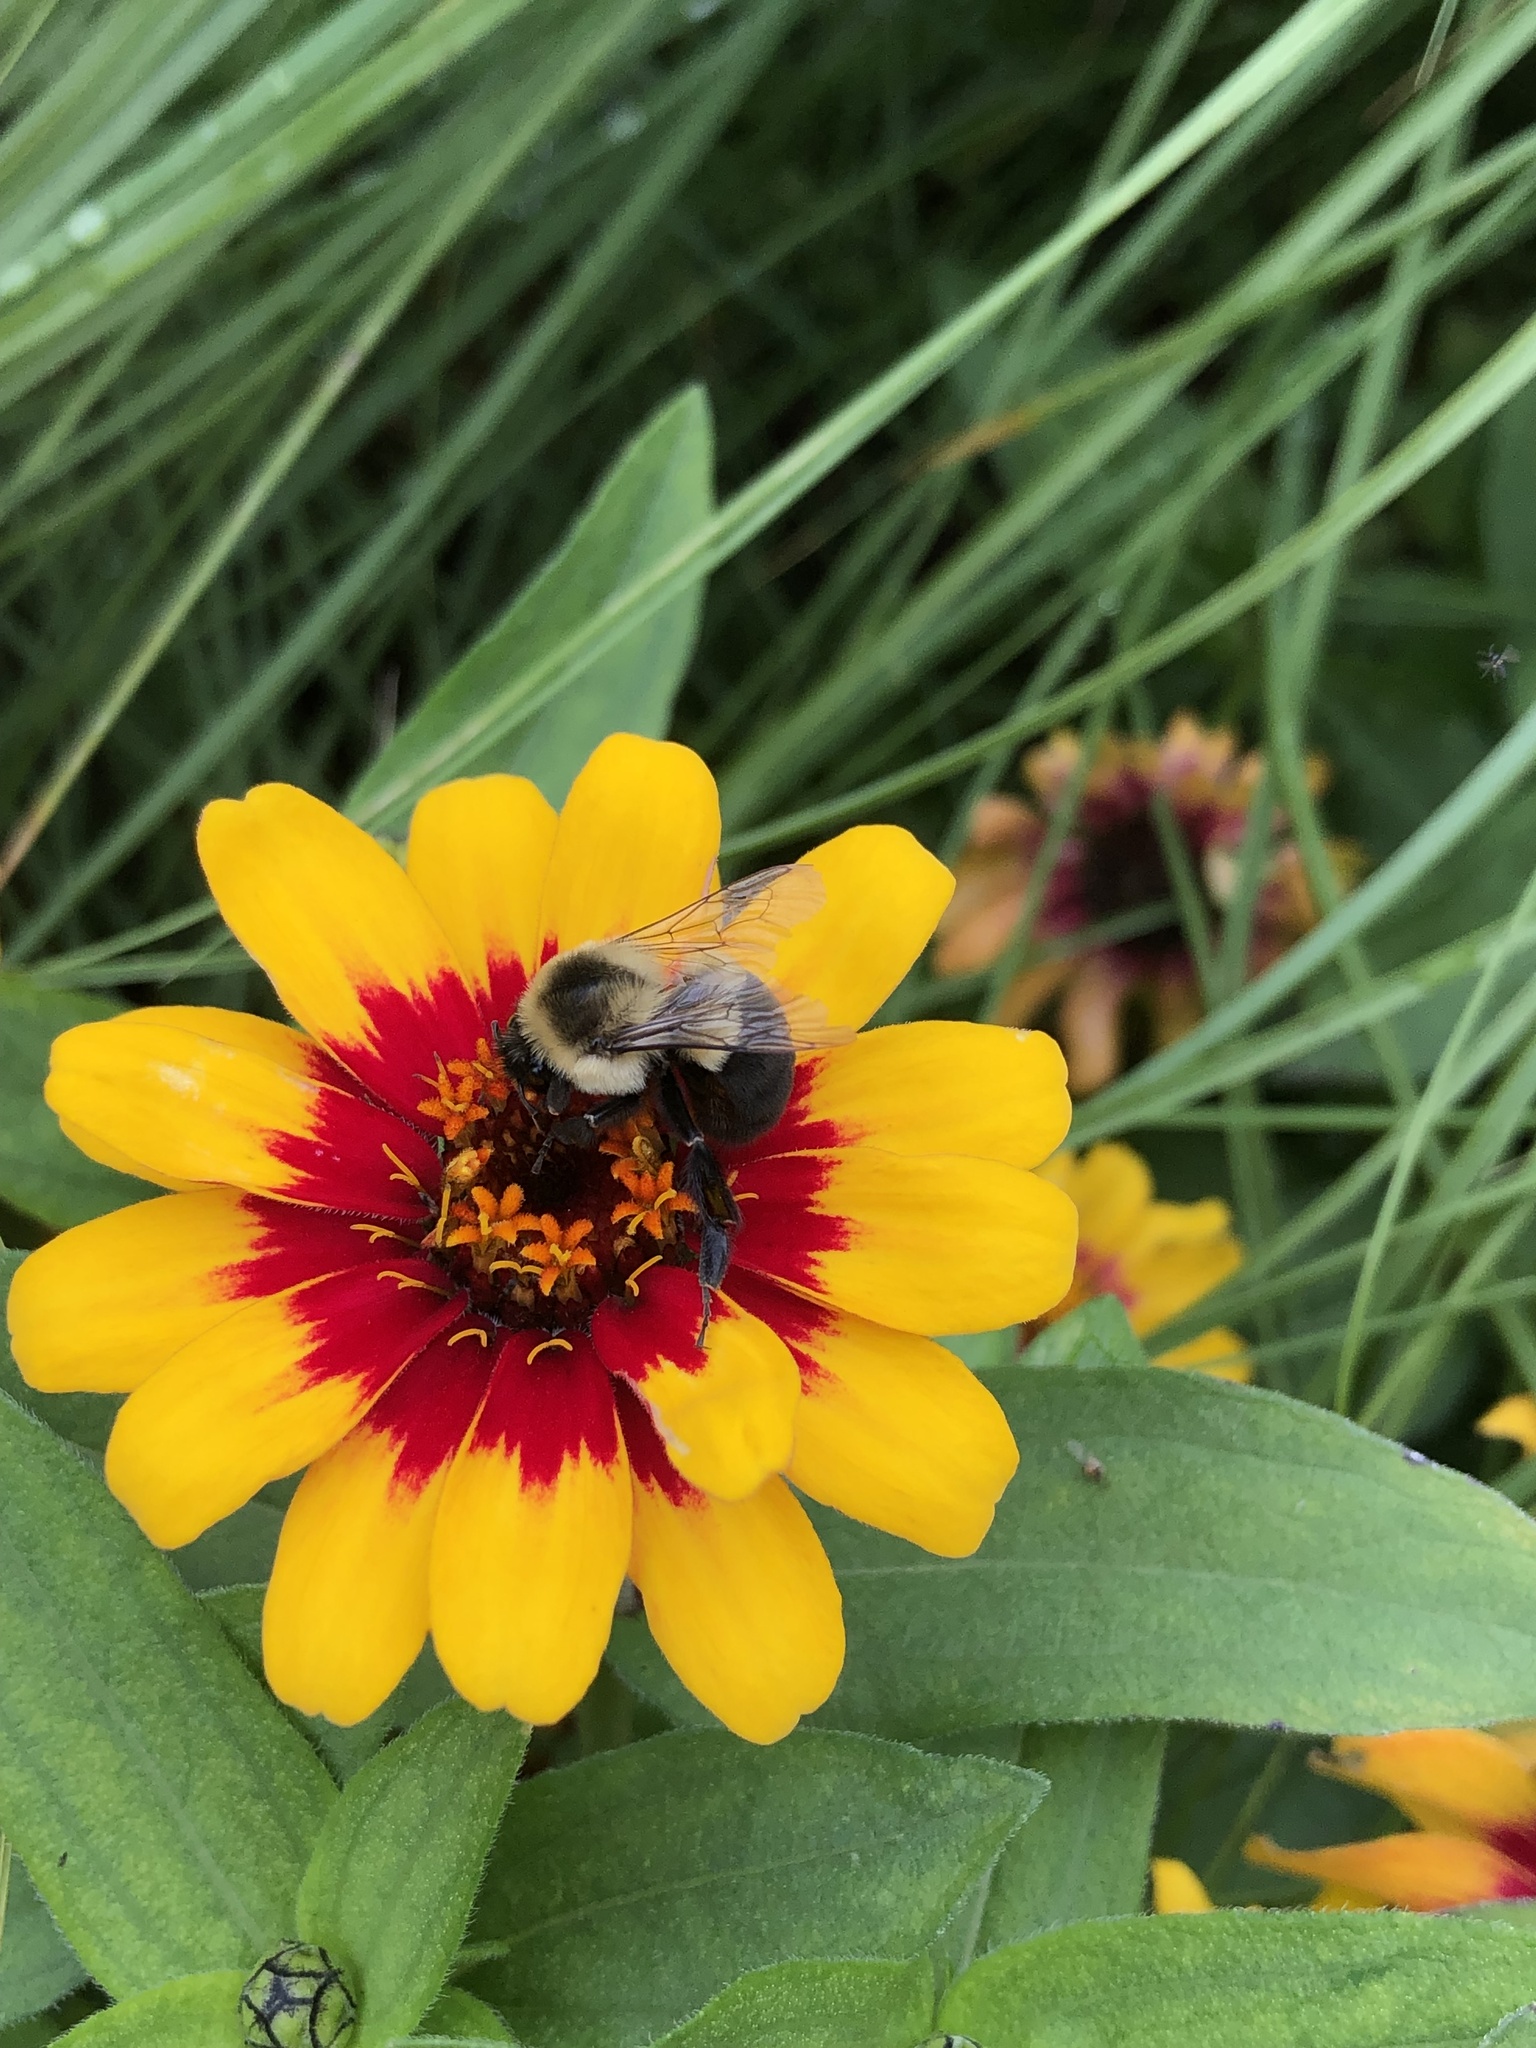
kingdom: Animalia
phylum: Arthropoda
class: Insecta
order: Hymenoptera
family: Apidae
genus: Bombus
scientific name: Bombus impatiens
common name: Common eastern bumble bee
